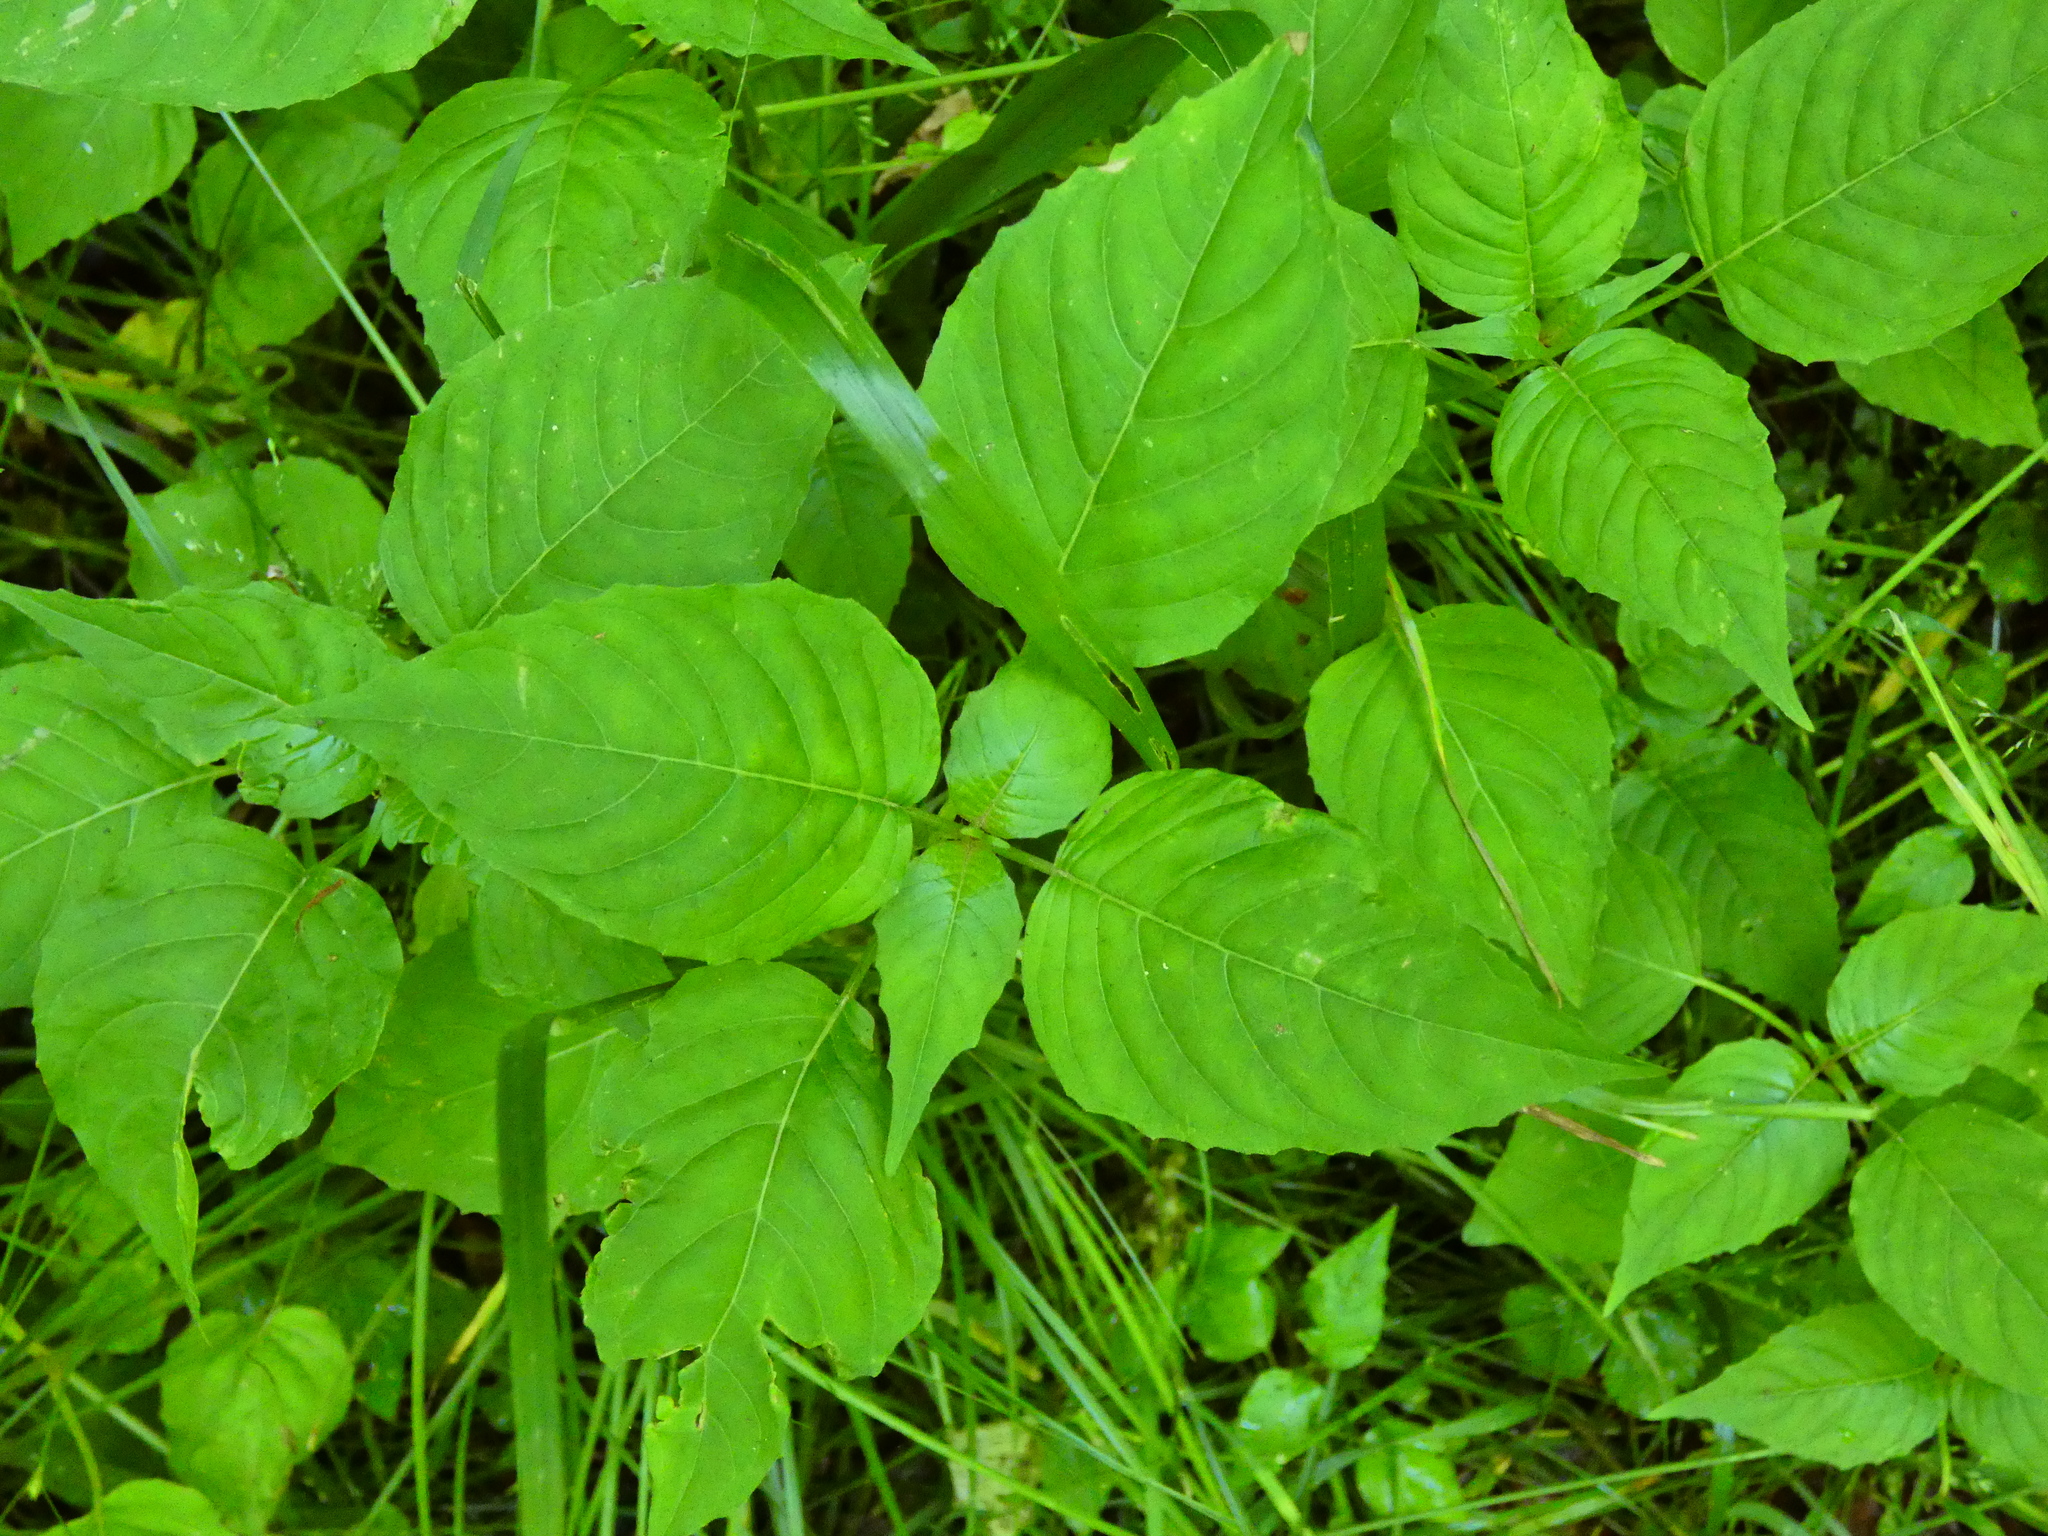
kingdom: Plantae
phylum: Tracheophyta
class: Magnoliopsida
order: Myrtales
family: Onagraceae
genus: Circaea
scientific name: Circaea lutetiana
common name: Enchanter's-nightshade
